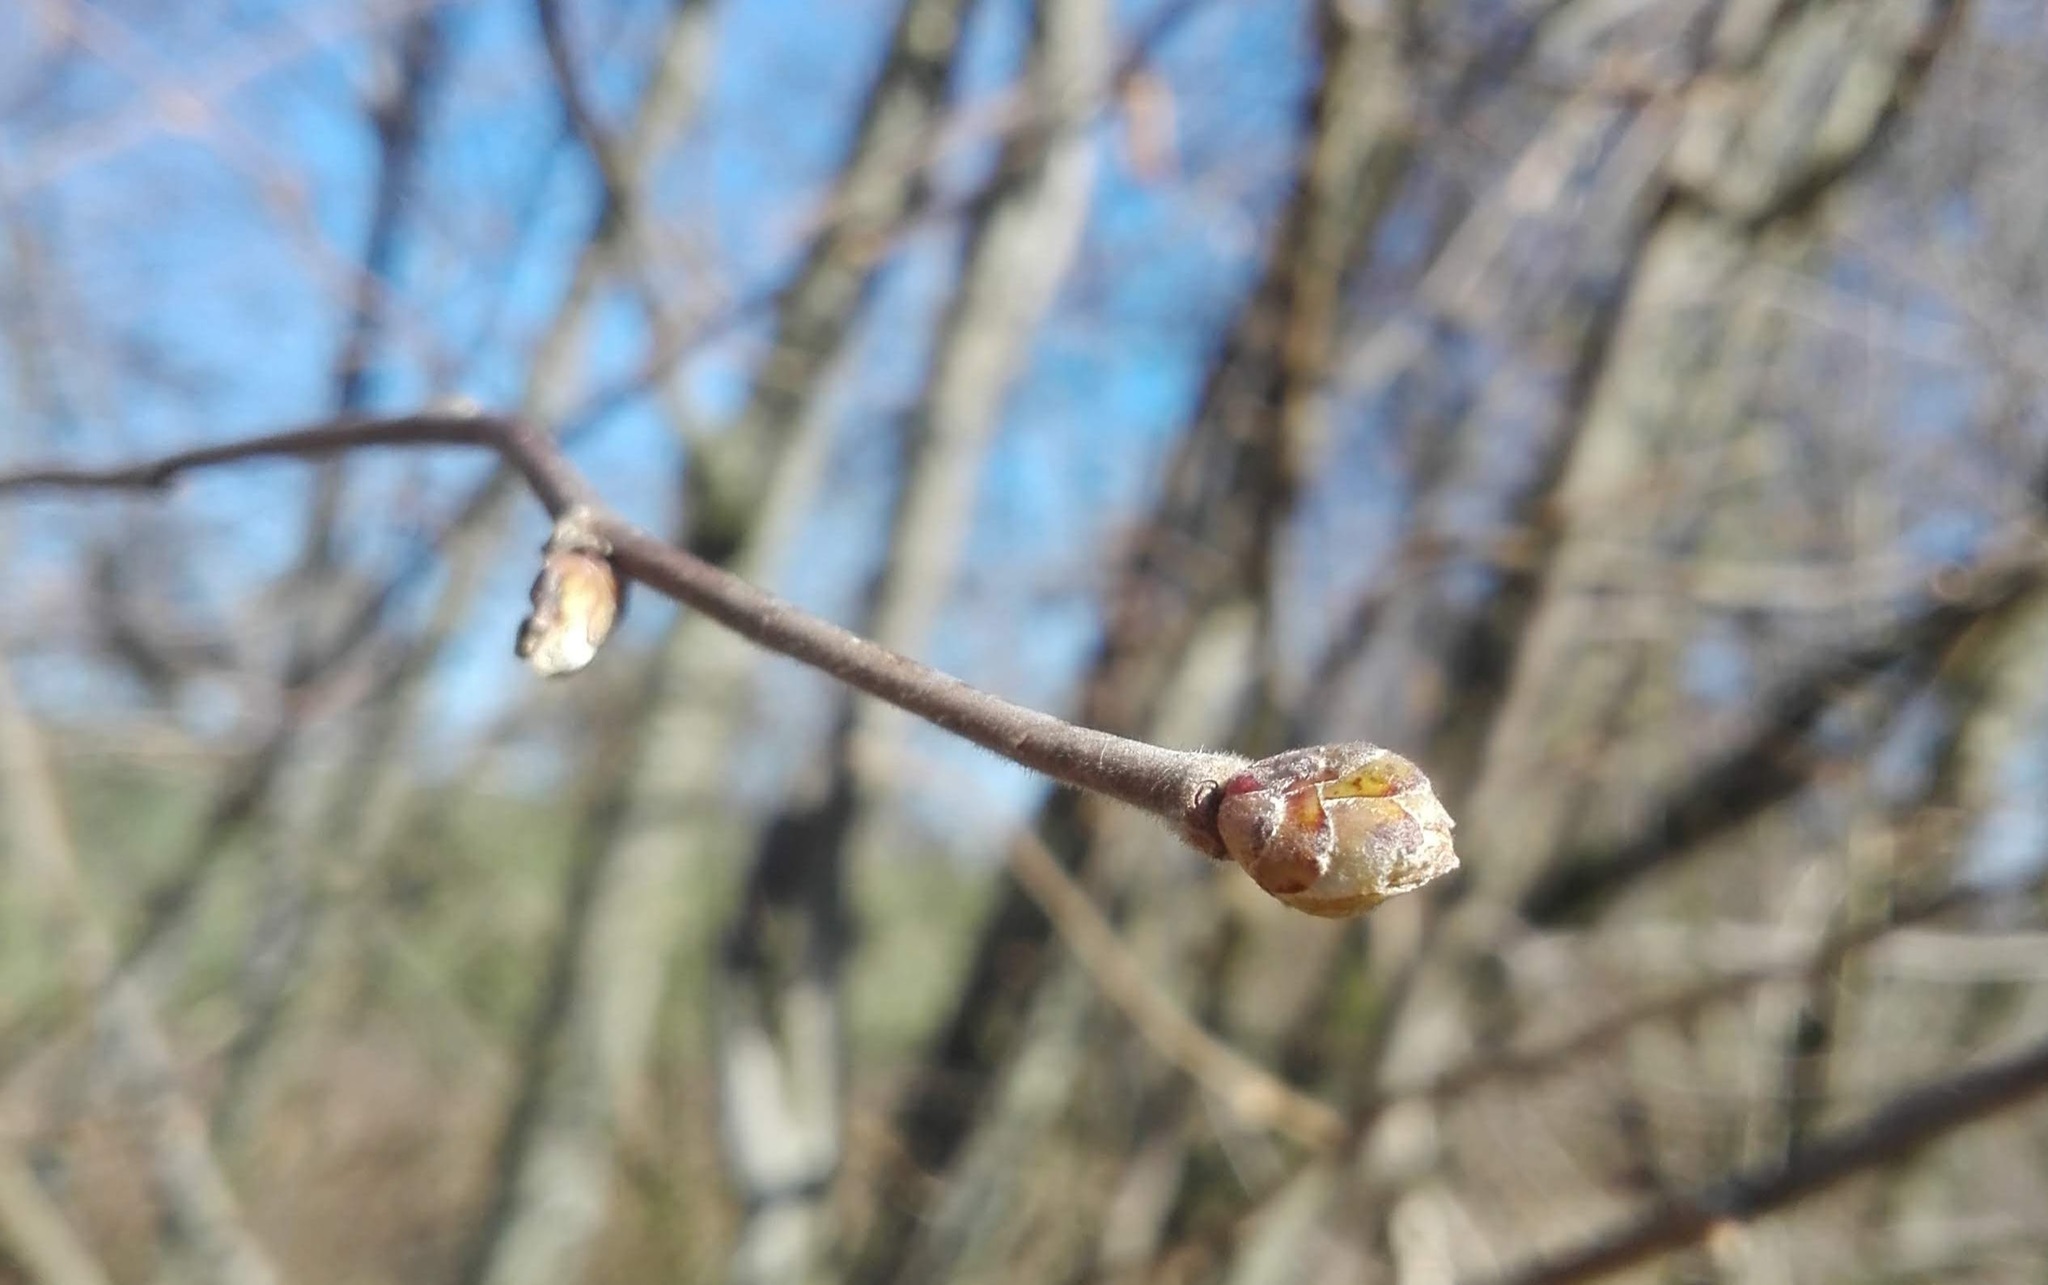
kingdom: Plantae
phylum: Tracheophyta
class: Magnoliopsida
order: Fagales
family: Betulaceae
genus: Corylus
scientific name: Corylus avellana
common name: European hazel
